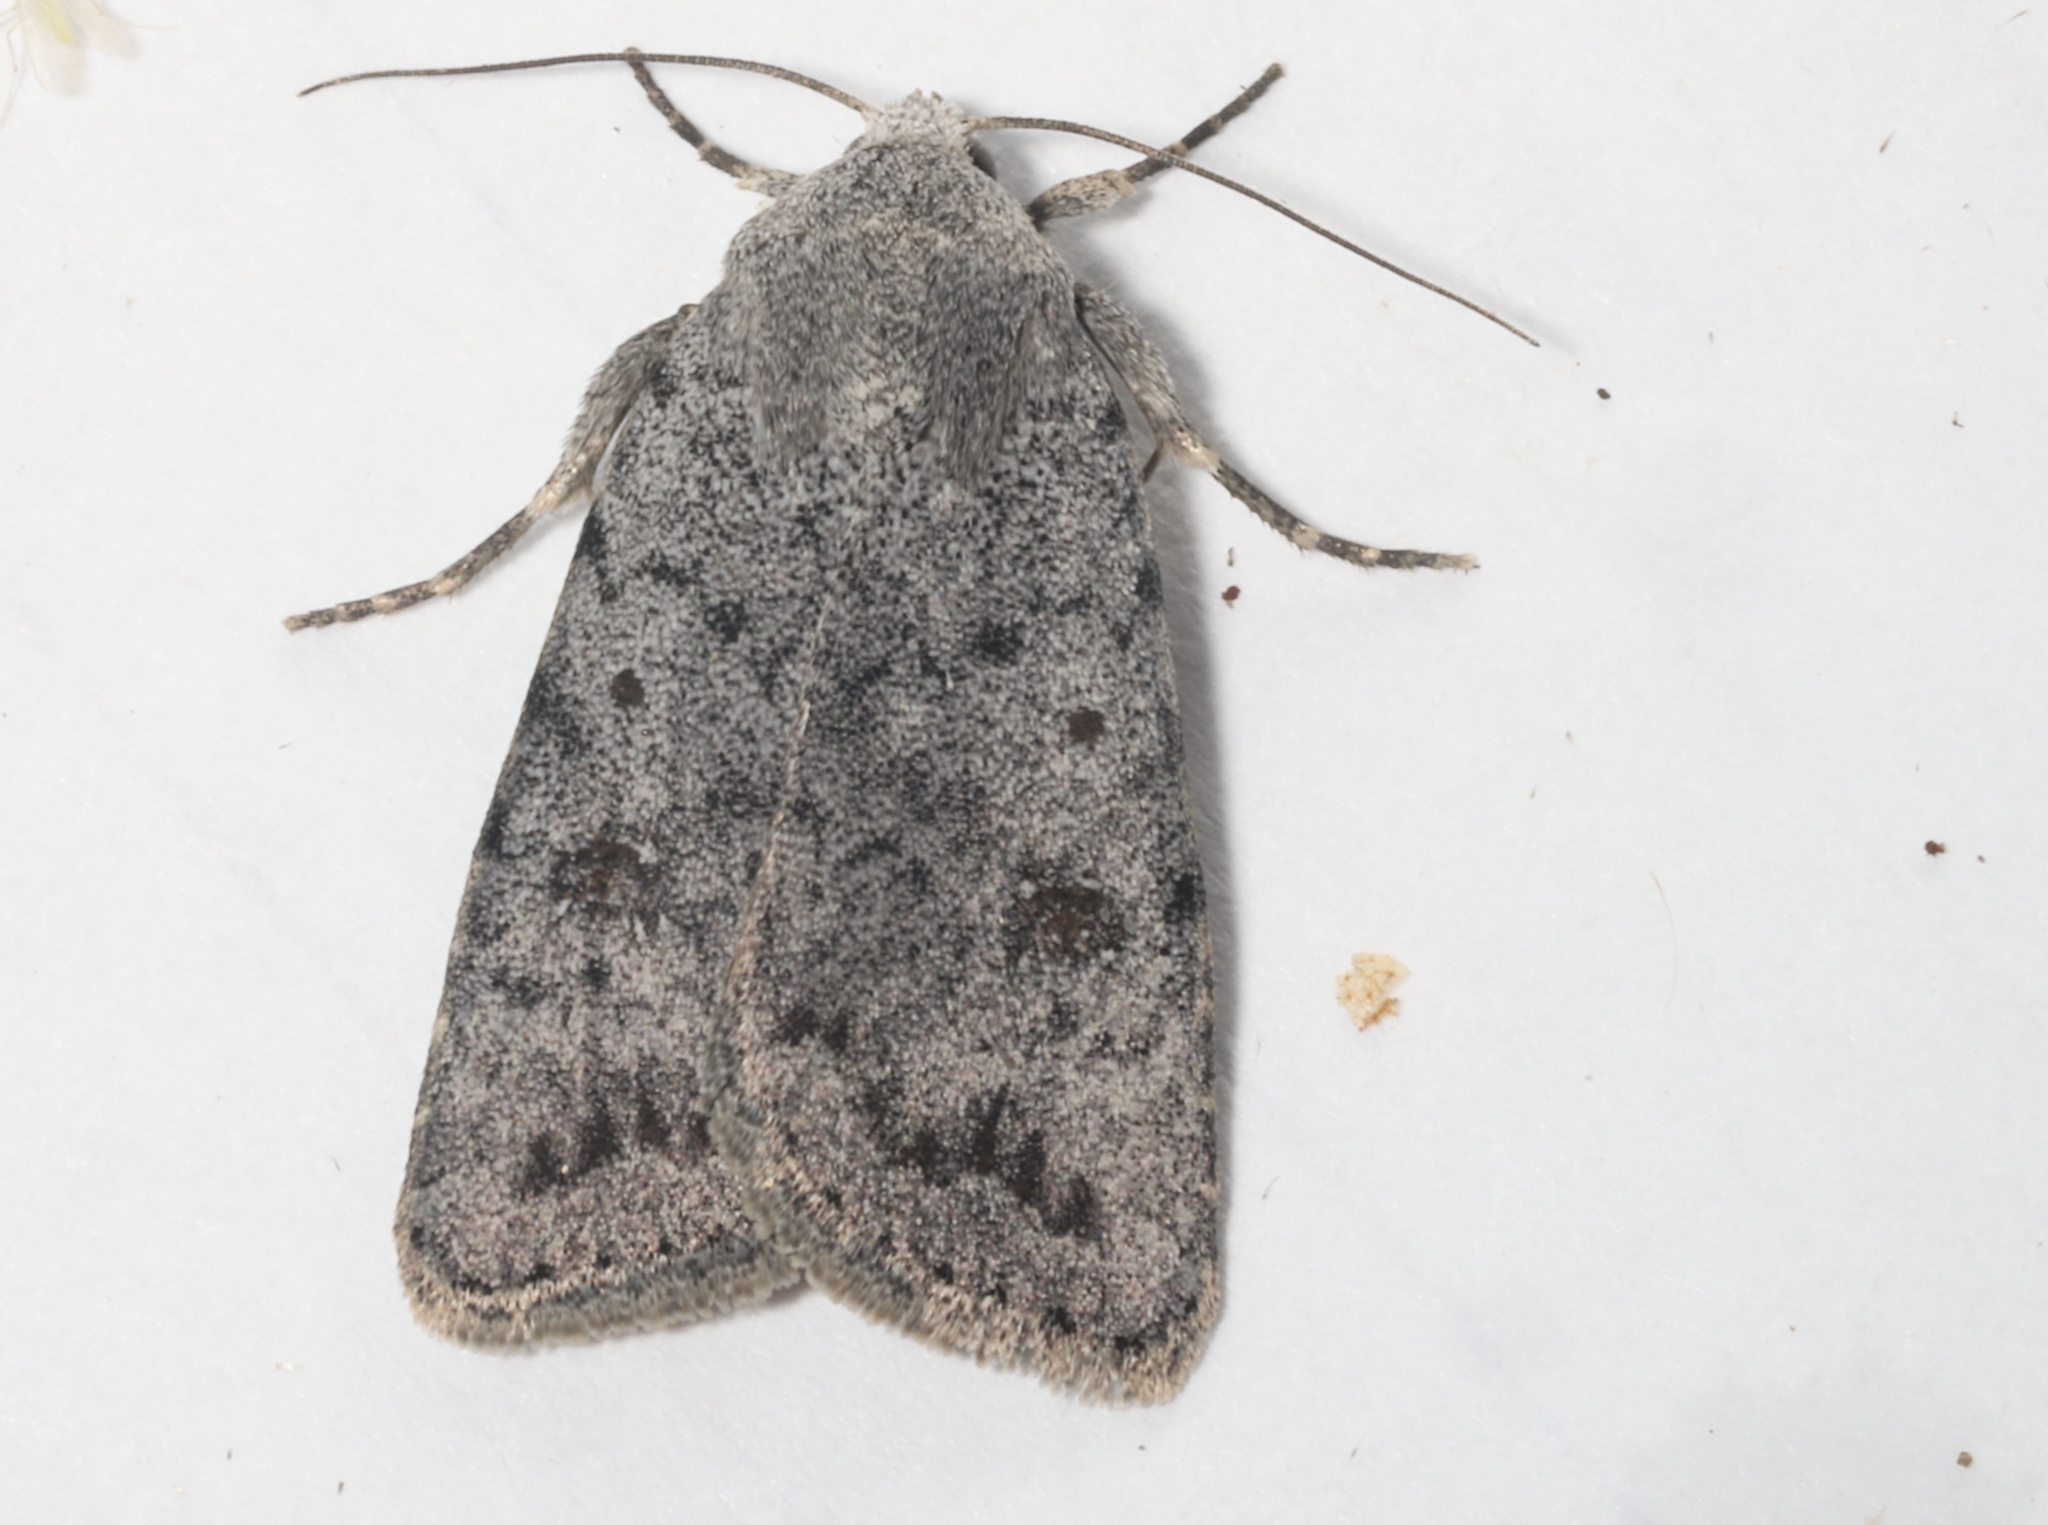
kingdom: Animalia
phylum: Arthropoda
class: Insecta
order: Lepidoptera
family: Noctuidae
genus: Caradrina
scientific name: Caradrina multifera
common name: Speckled rustic
